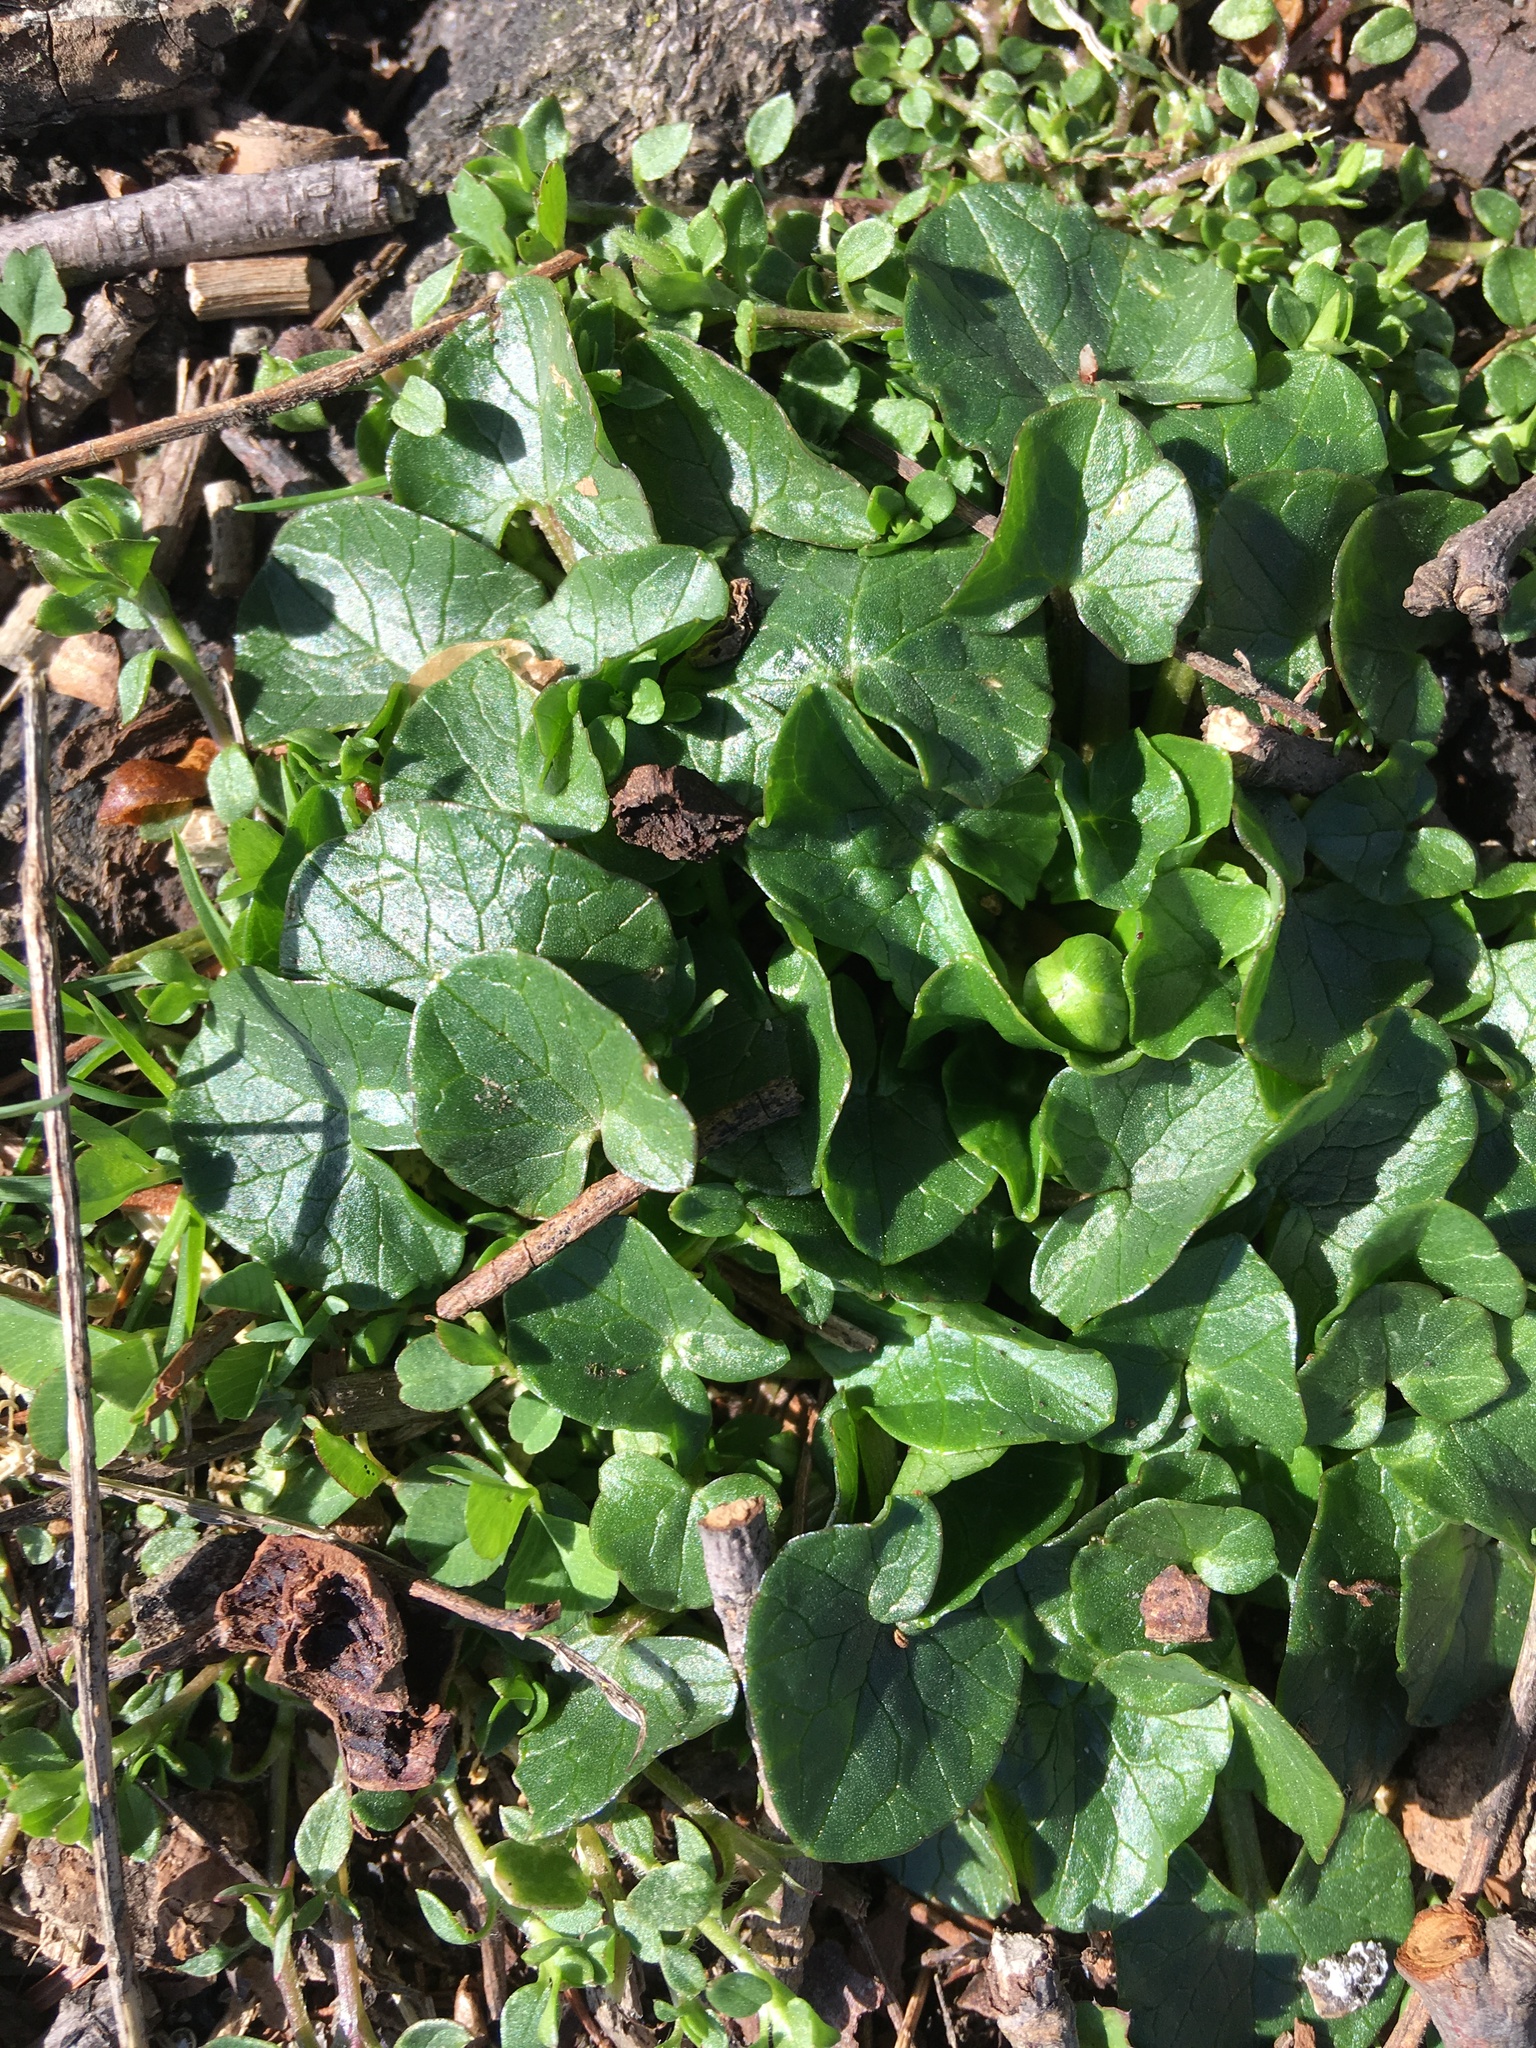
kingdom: Plantae
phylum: Tracheophyta
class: Magnoliopsida
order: Ranunculales
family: Ranunculaceae
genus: Ficaria
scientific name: Ficaria verna
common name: Lesser celandine
